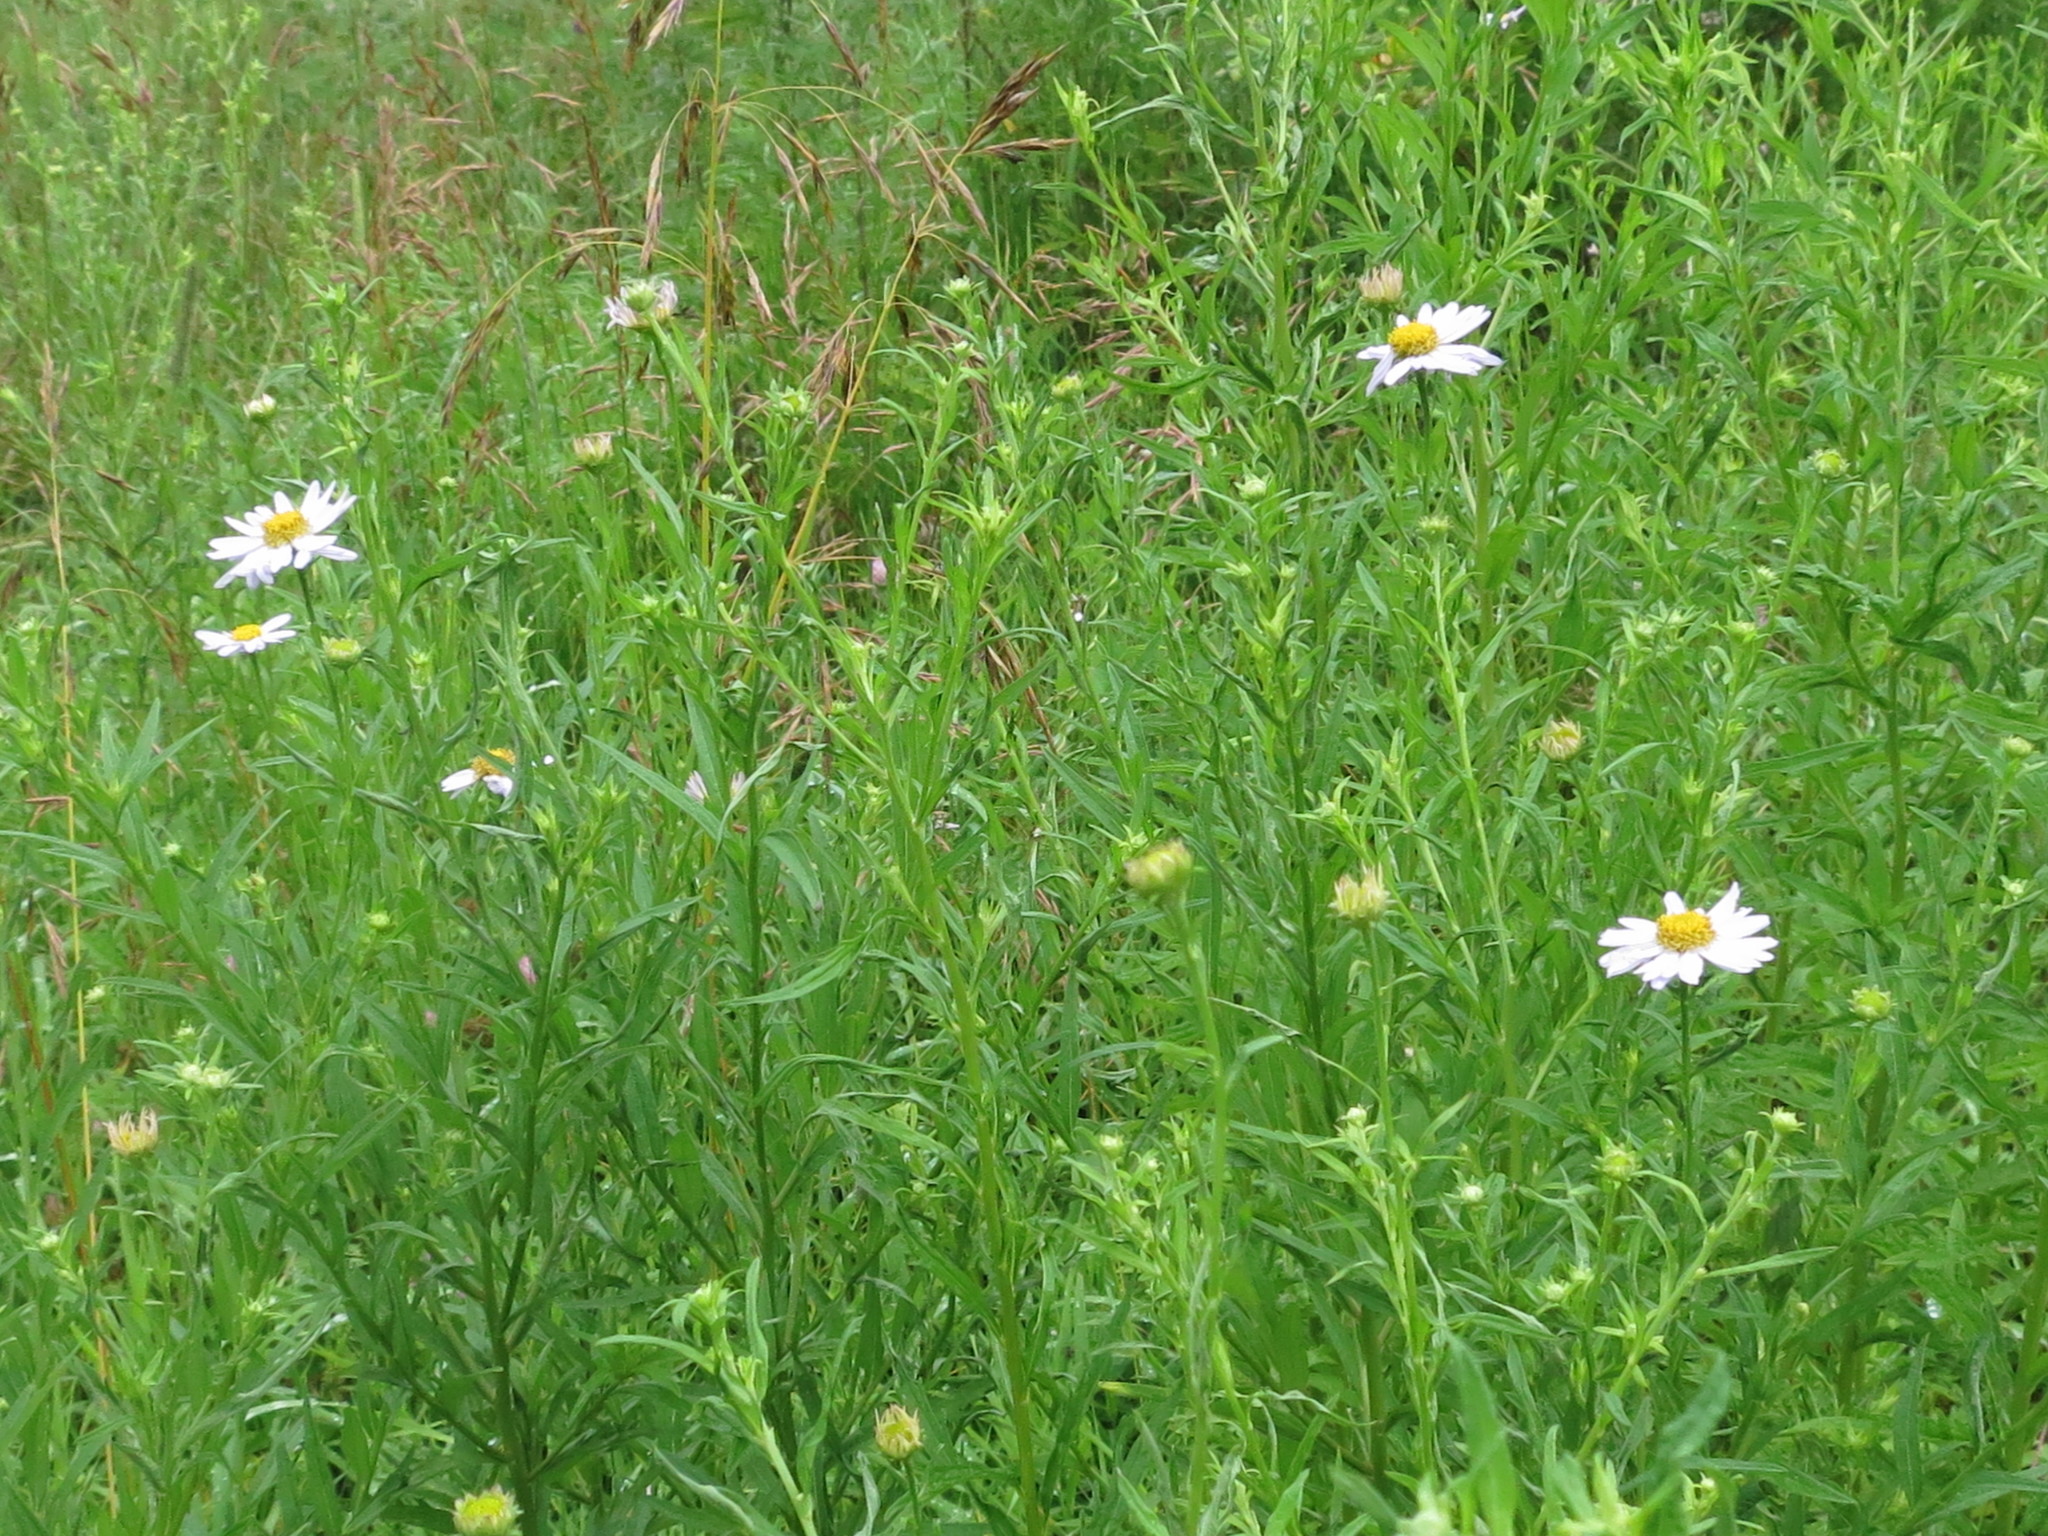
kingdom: Plantae
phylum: Tracheophyta
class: Magnoliopsida
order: Asterales
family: Asteraceae
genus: Kalimeris
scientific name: Kalimeris incisa
